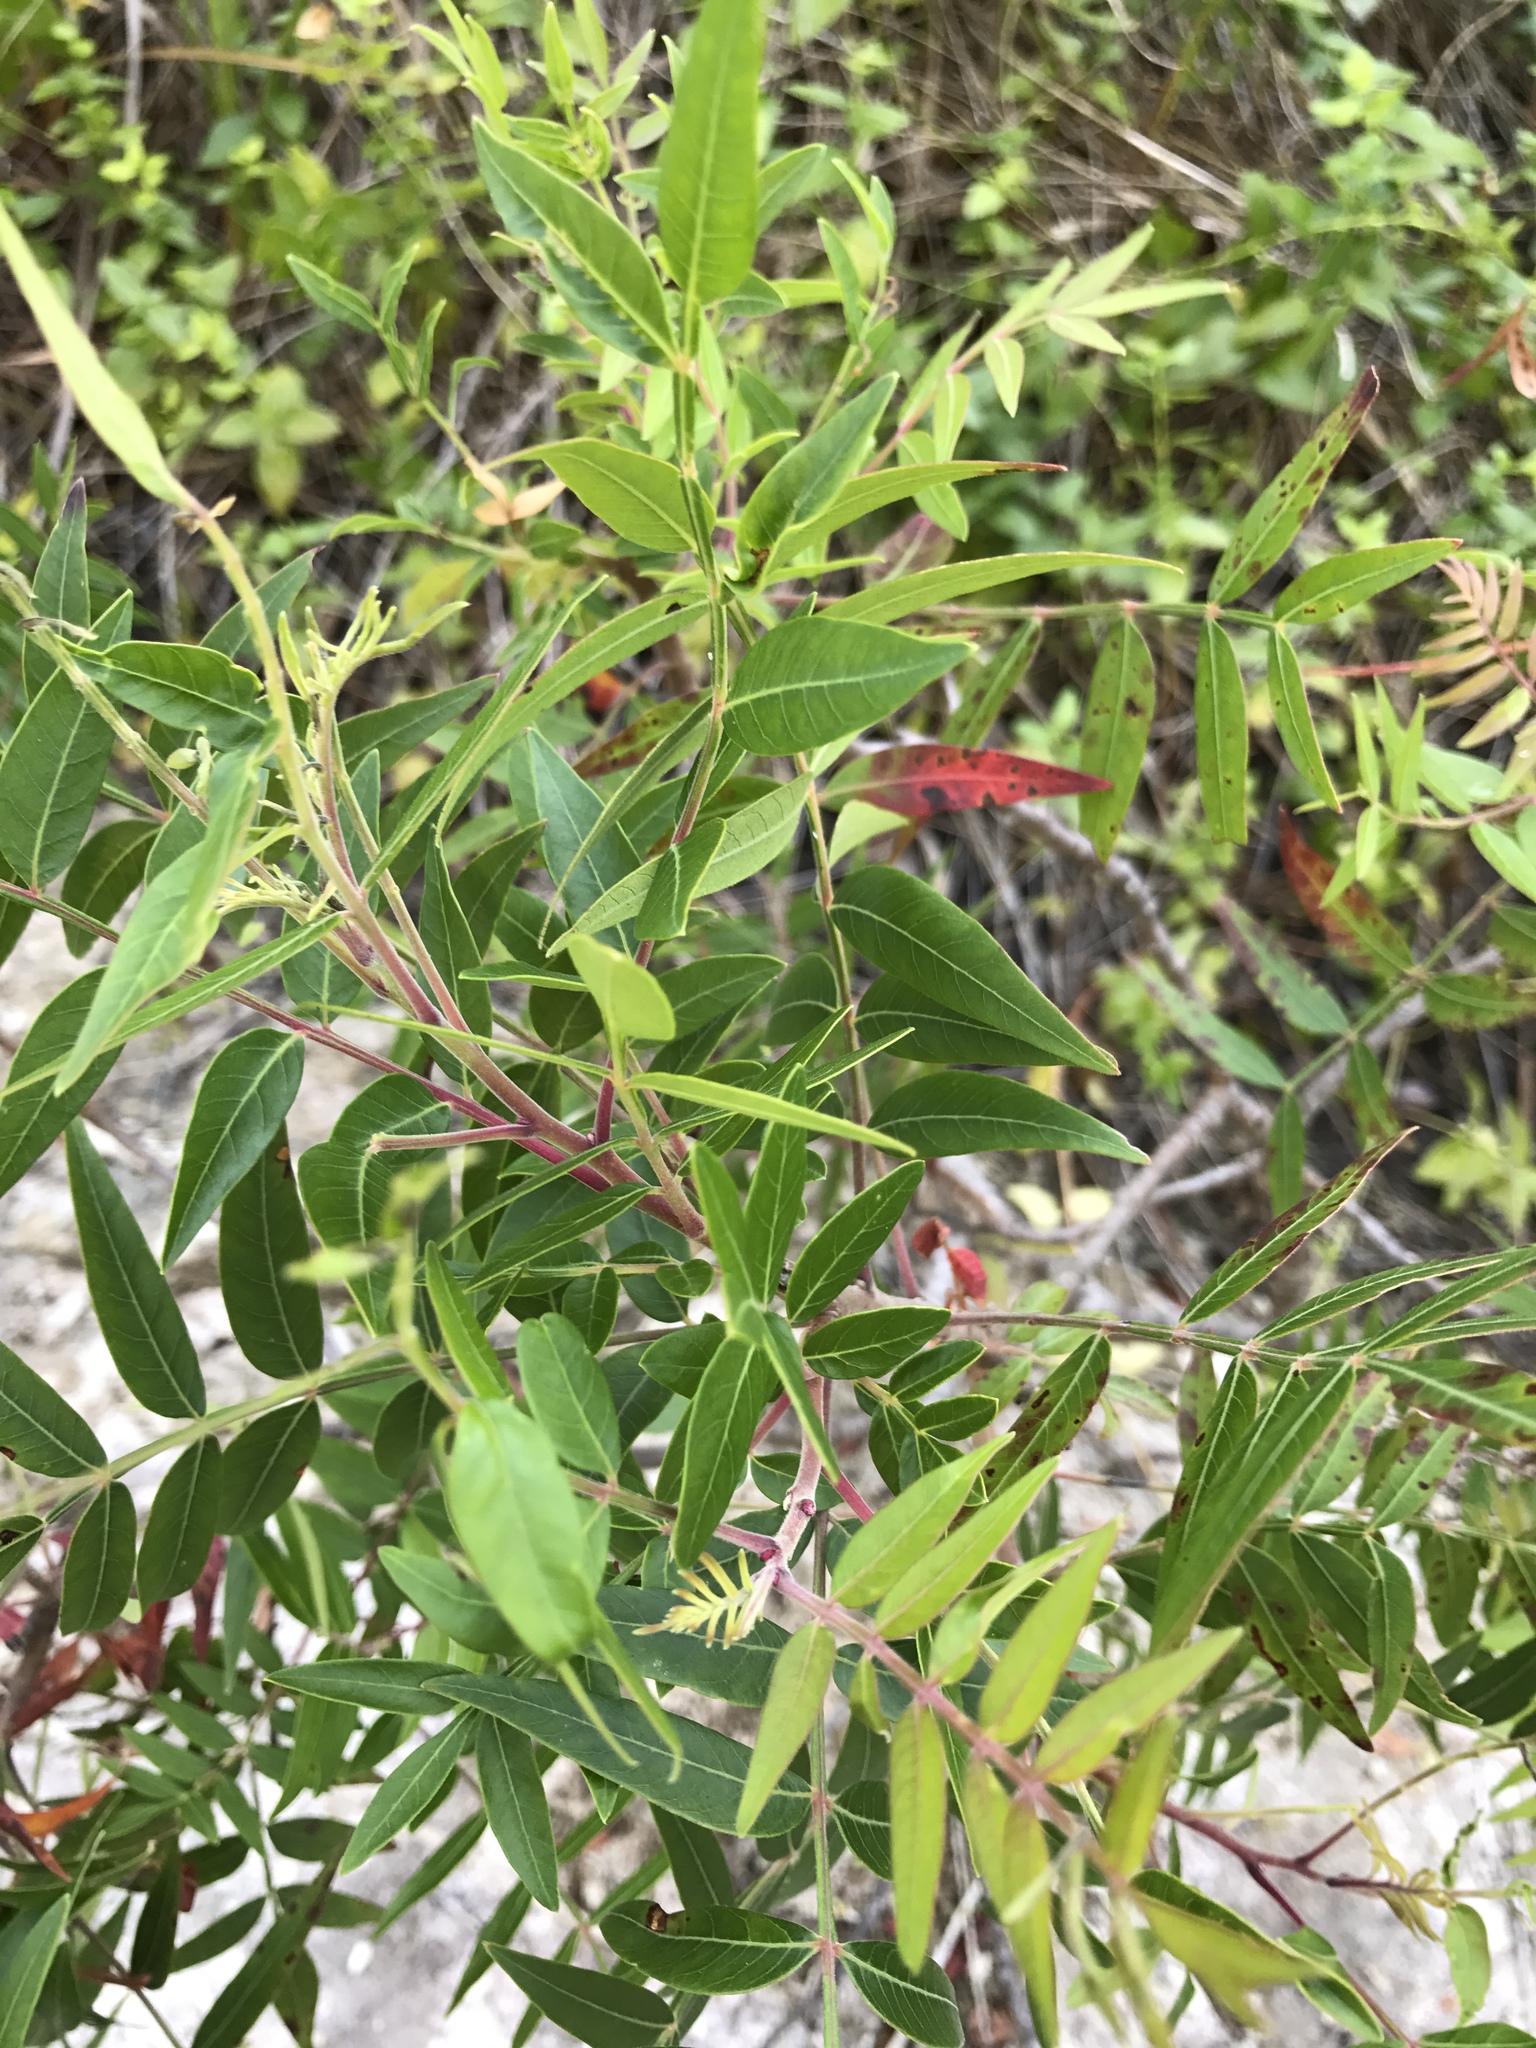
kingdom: Plantae
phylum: Tracheophyta
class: Magnoliopsida
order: Sapindales
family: Anacardiaceae
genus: Rhus
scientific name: Rhus lanceolata
